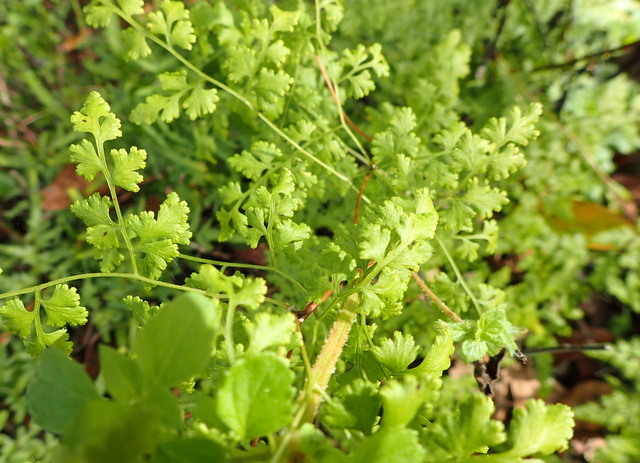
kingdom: Plantae
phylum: Tracheophyta
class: Polypodiopsida
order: Schizaeales
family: Lygodiaceae
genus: Lygodium
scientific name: Lygodium japonicum
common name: Japanese climbing fern
